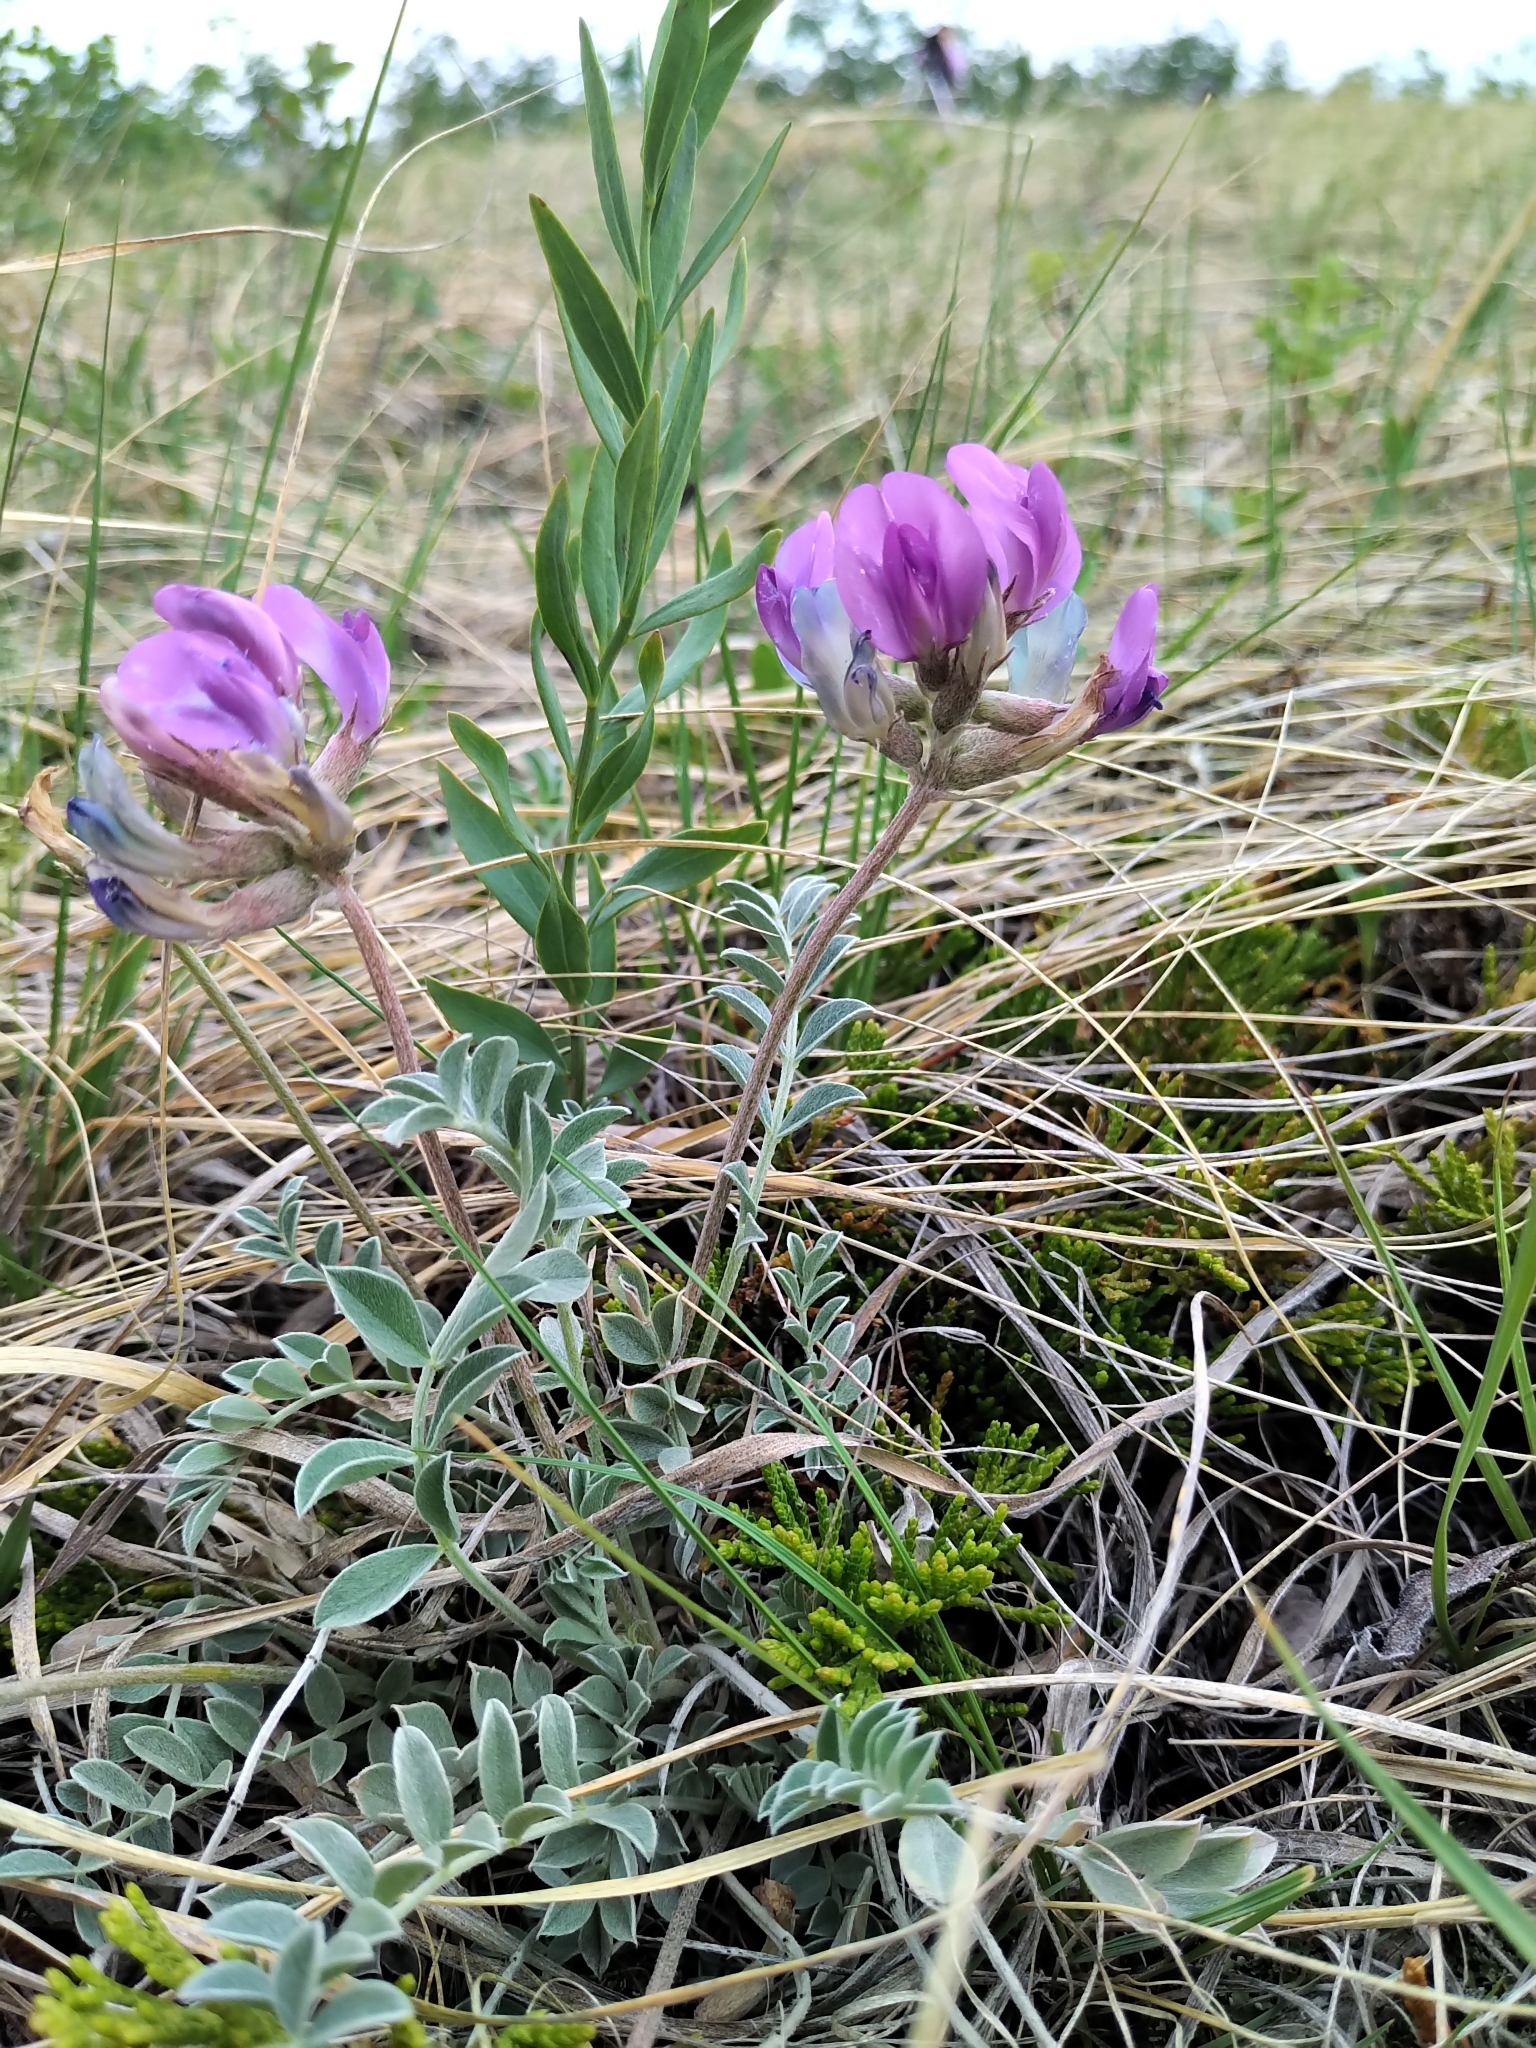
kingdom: Plantae
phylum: Tracheophyta
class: Magnoliopsida
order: Fabales
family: Fabaceae
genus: Astragalus
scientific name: Astragalus missouriensis
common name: Missouri milk-vetch
